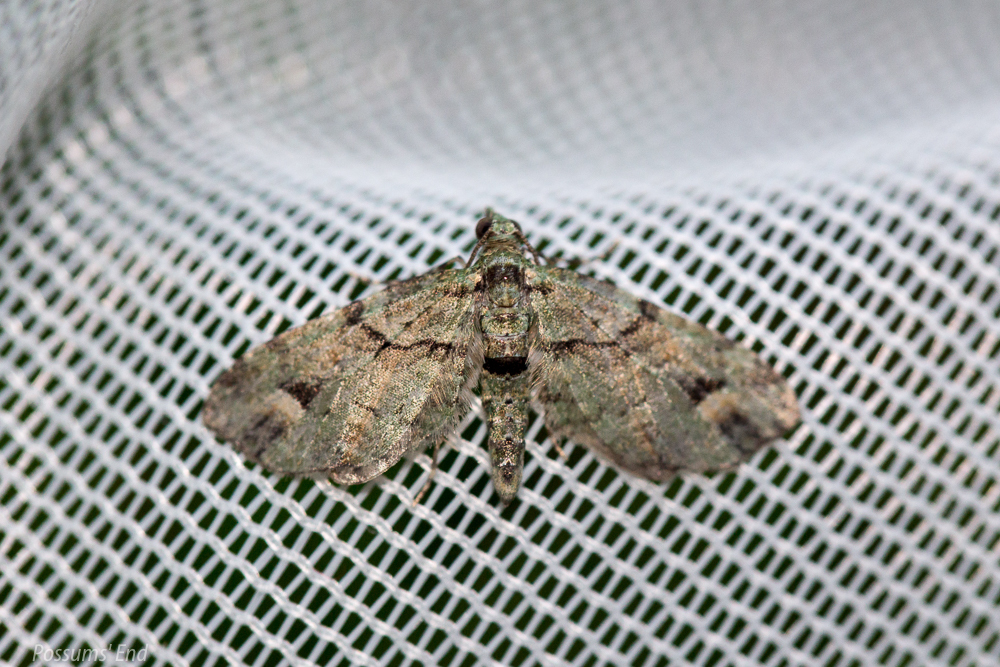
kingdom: Animalia
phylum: Arthropoda
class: Insecta
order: Lepidoptera
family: Geometridae
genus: Idaea
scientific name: Idaea mutanda
